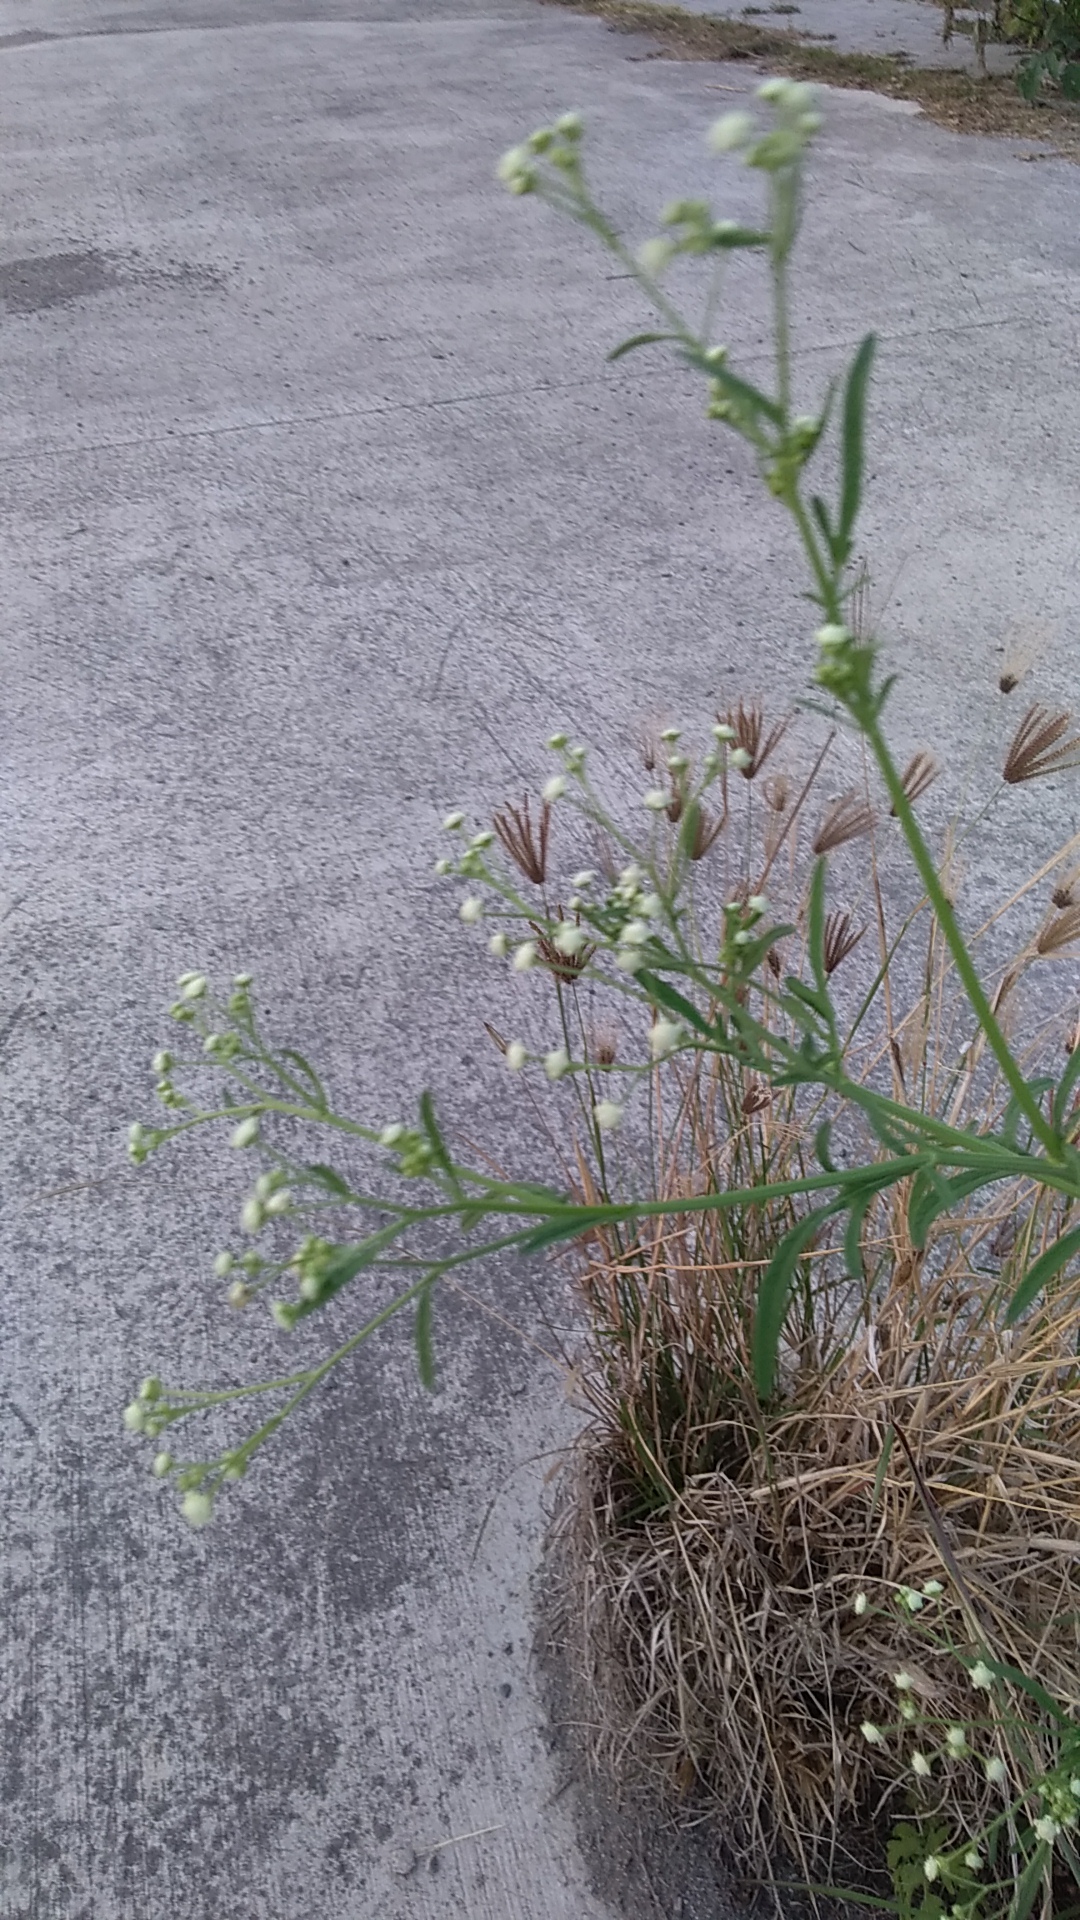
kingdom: Plantae
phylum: Tracheophyta
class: Magnoliopsida
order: Asterales
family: Asteraceae
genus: Parthenium
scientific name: Parthenium hysterophorus
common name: Santa maria feverfew
